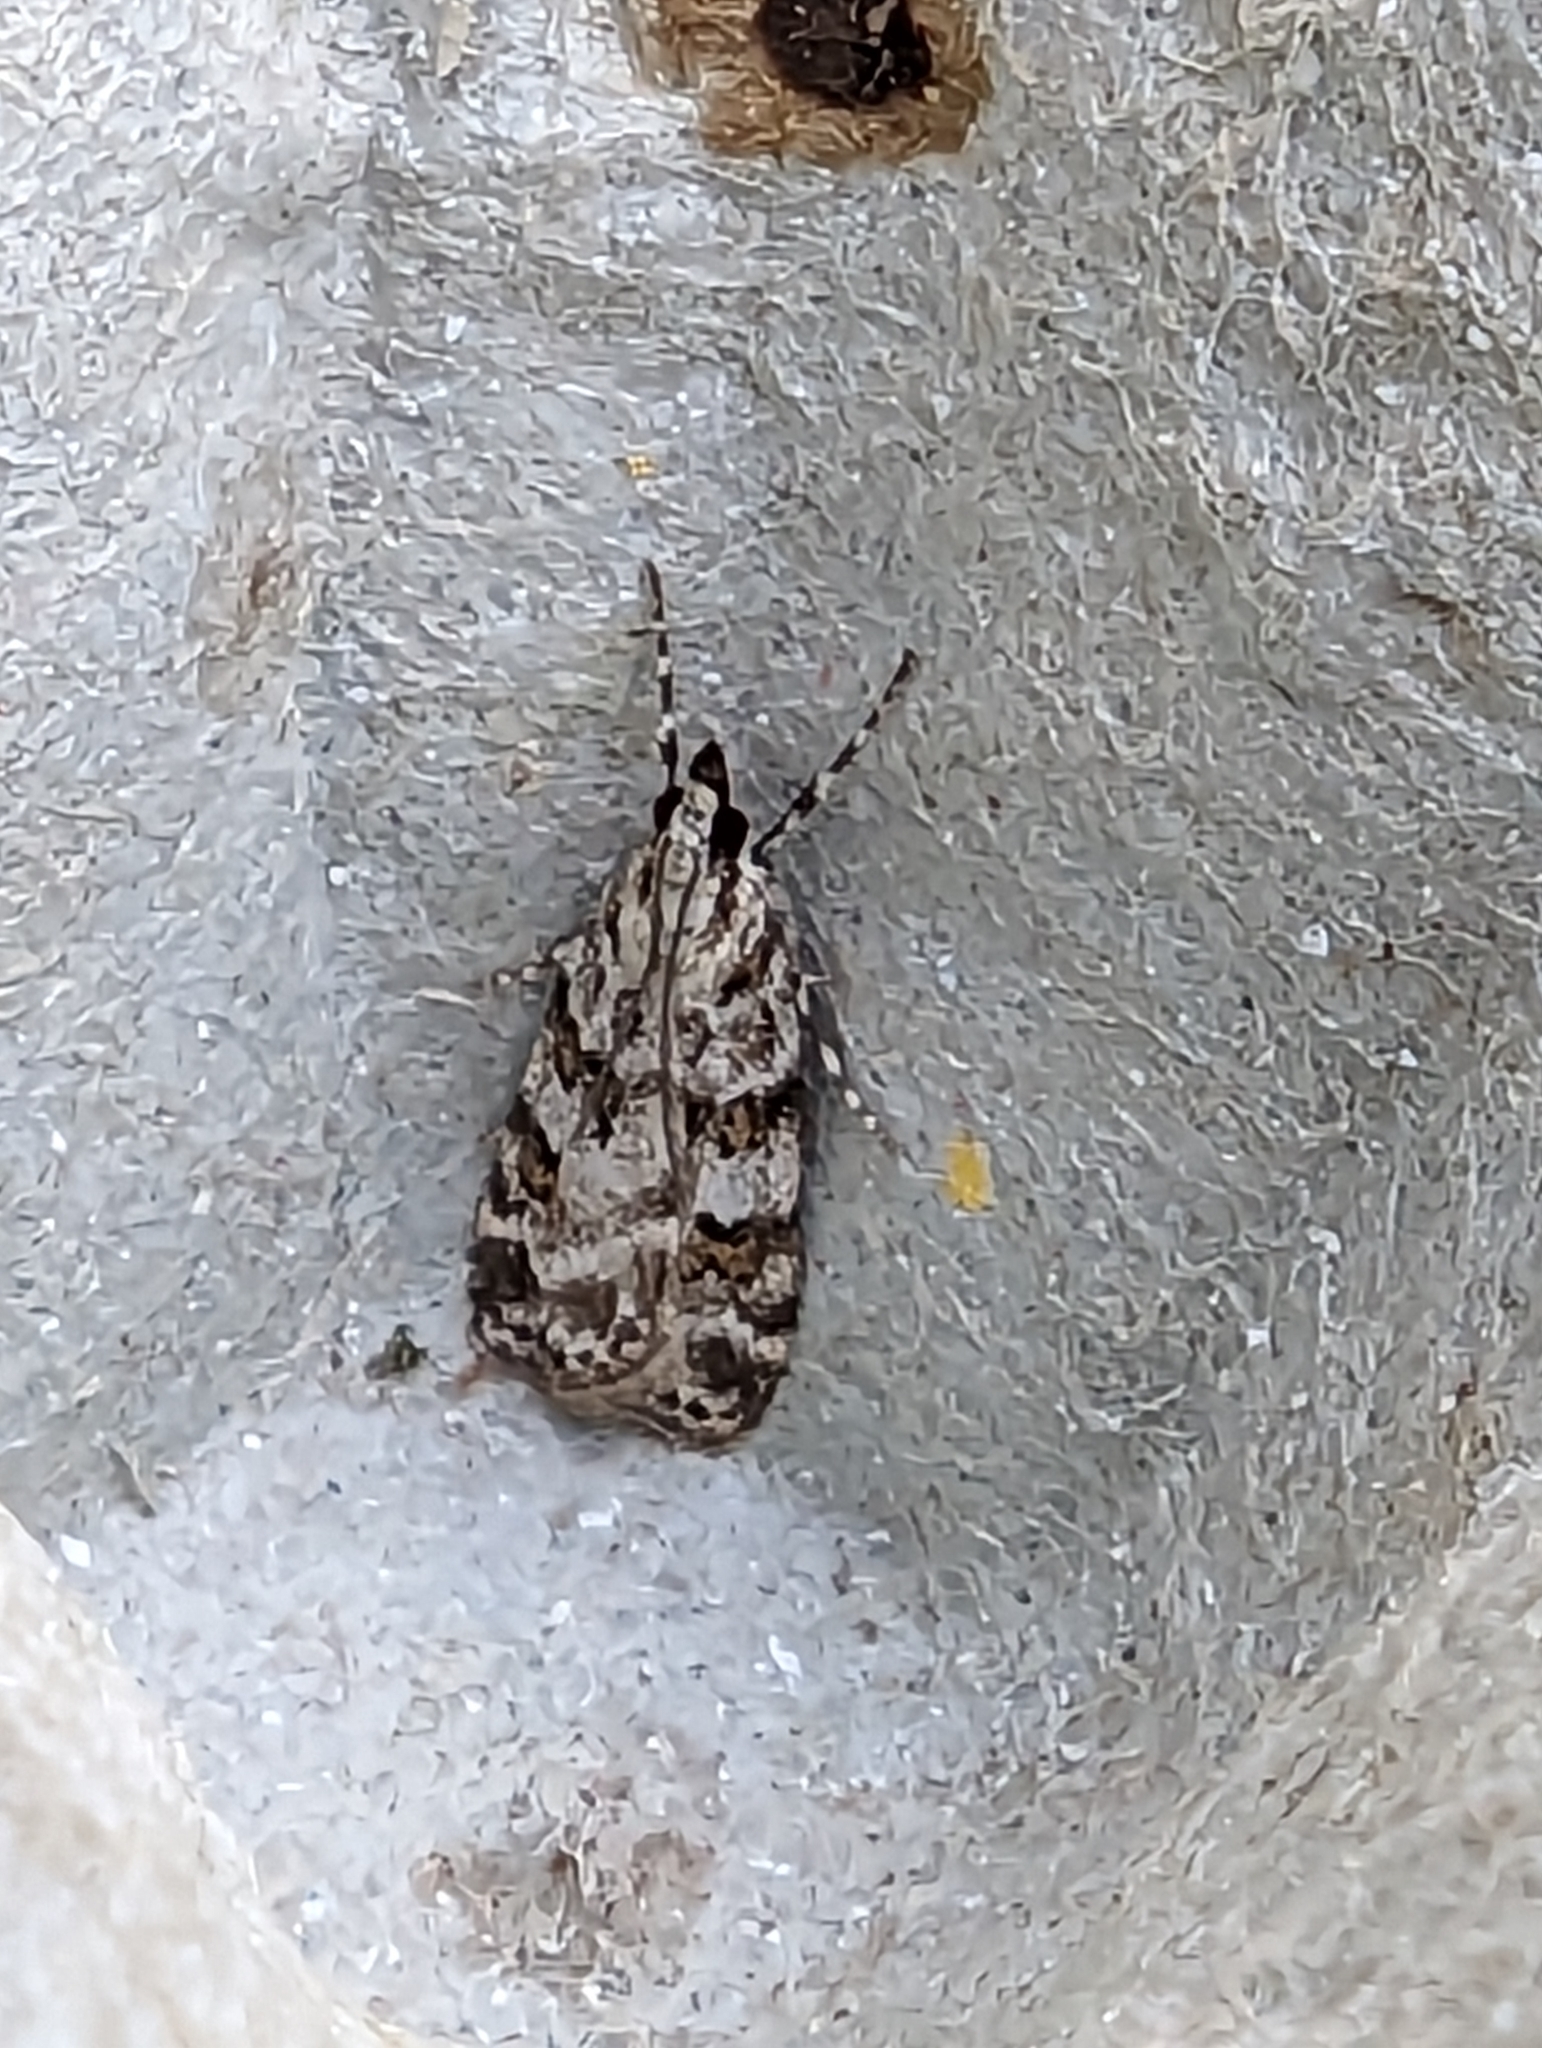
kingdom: Animalia
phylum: Arthropoda
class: Insecta
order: Lepidoptera
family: Crambidae
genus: Scoparia
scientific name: Scoparia pyralella
